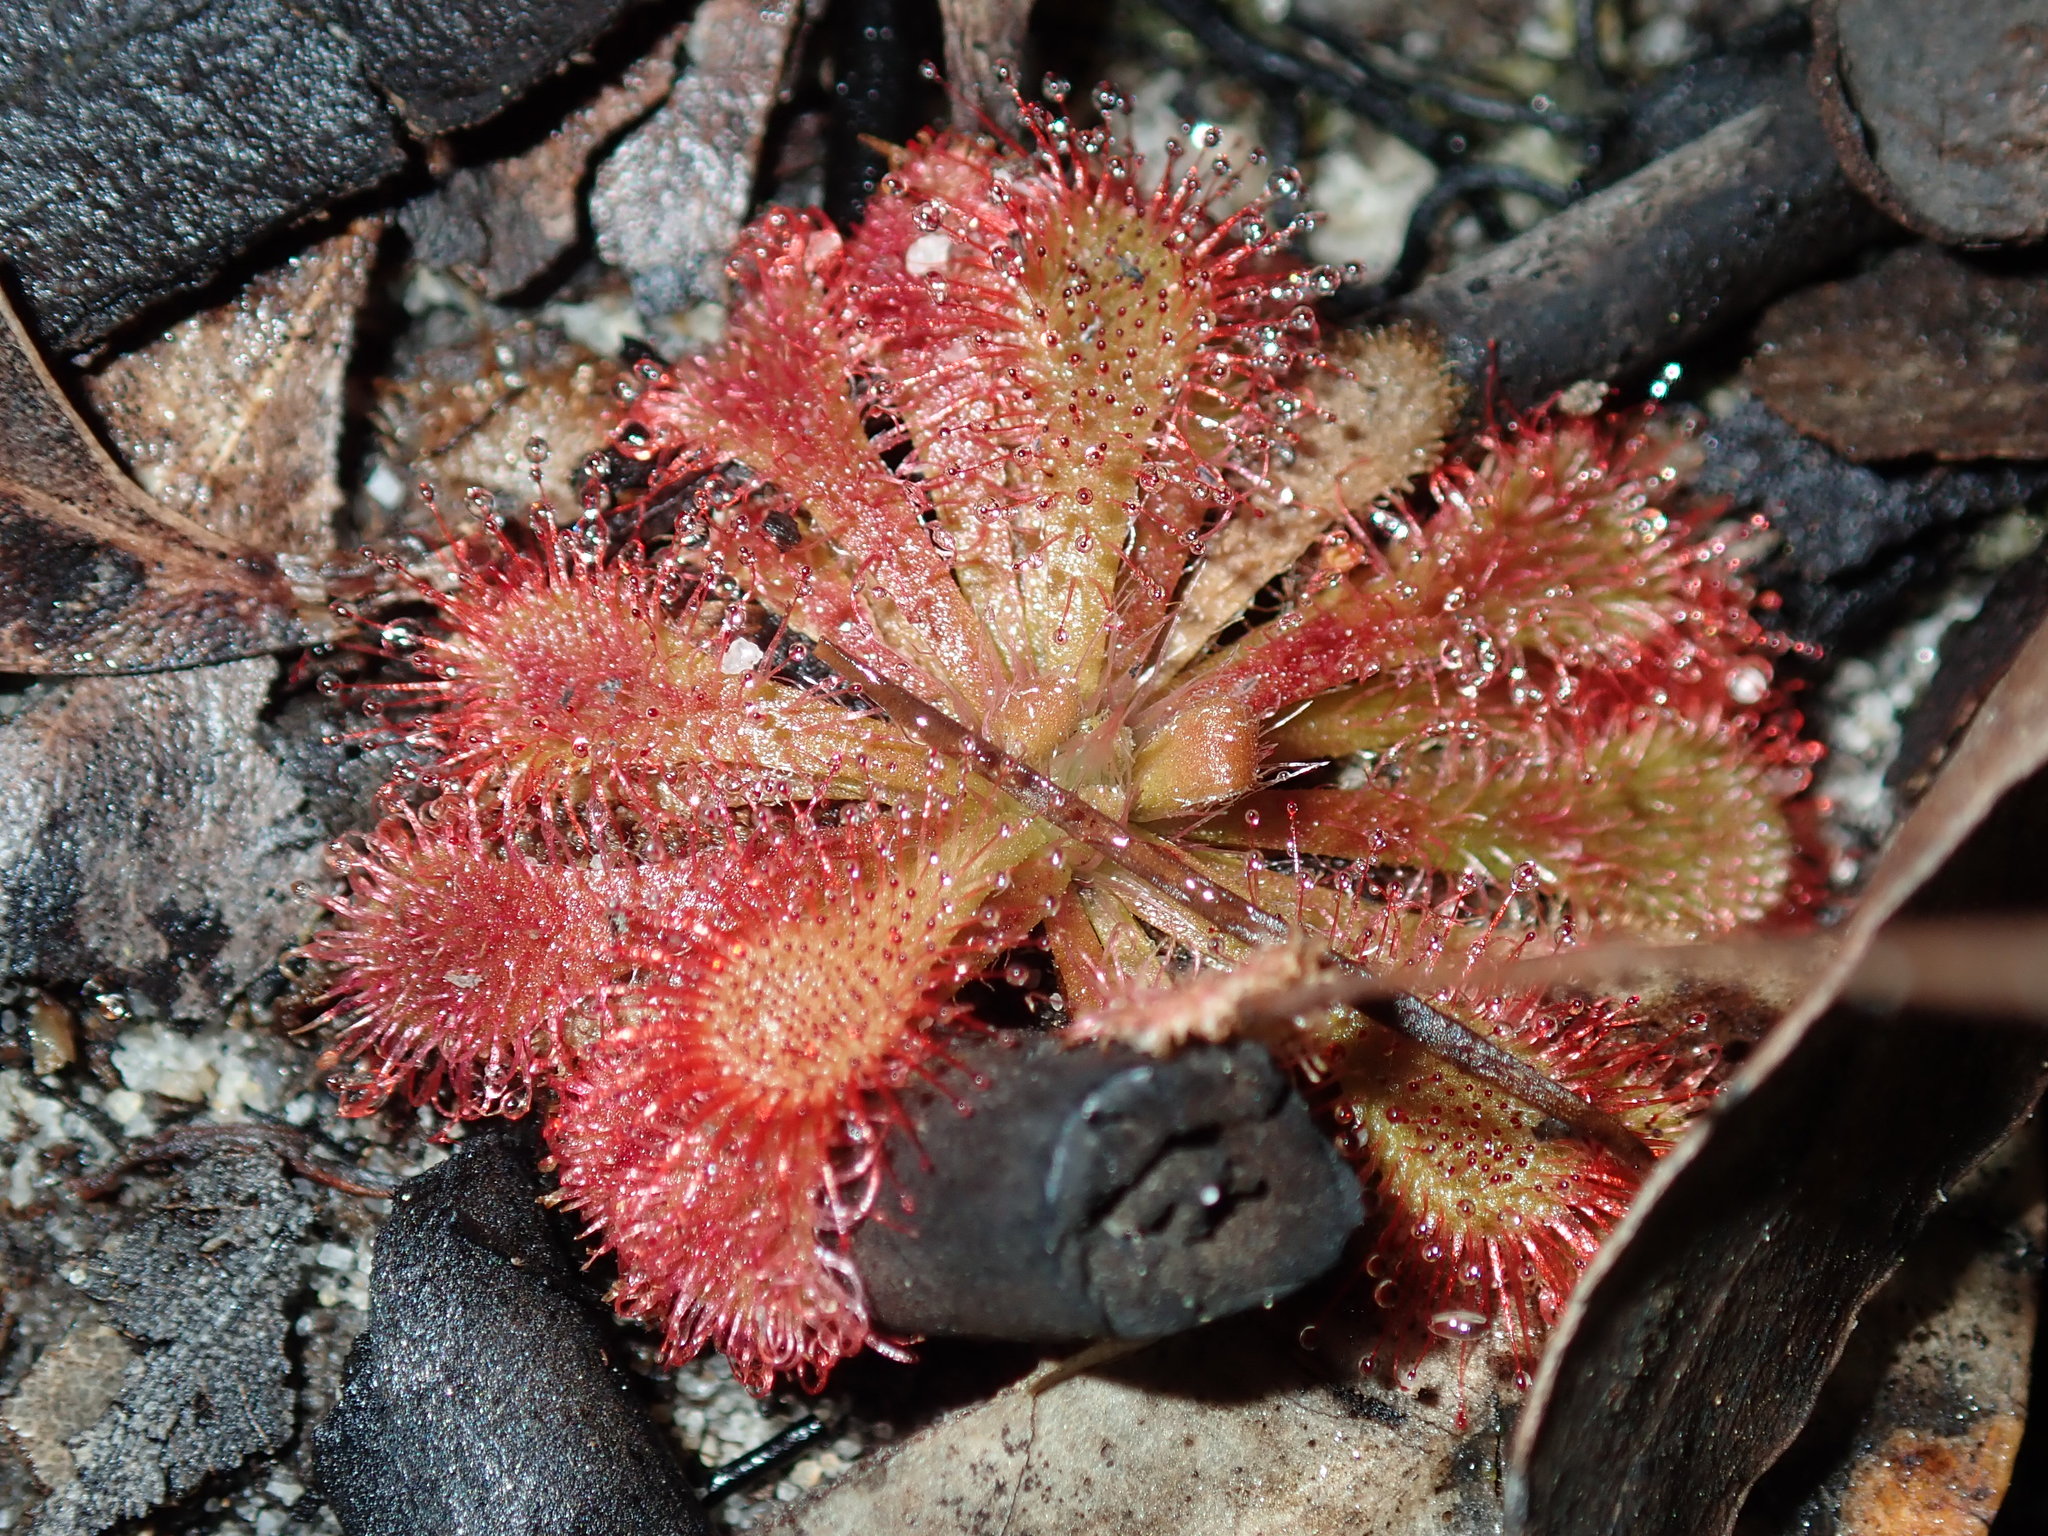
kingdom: Plantae
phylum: Tracheophyta
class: Magnoliopsida
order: Caryophyllales
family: Droseraceae
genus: Drosera
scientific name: Drosera spatulata
